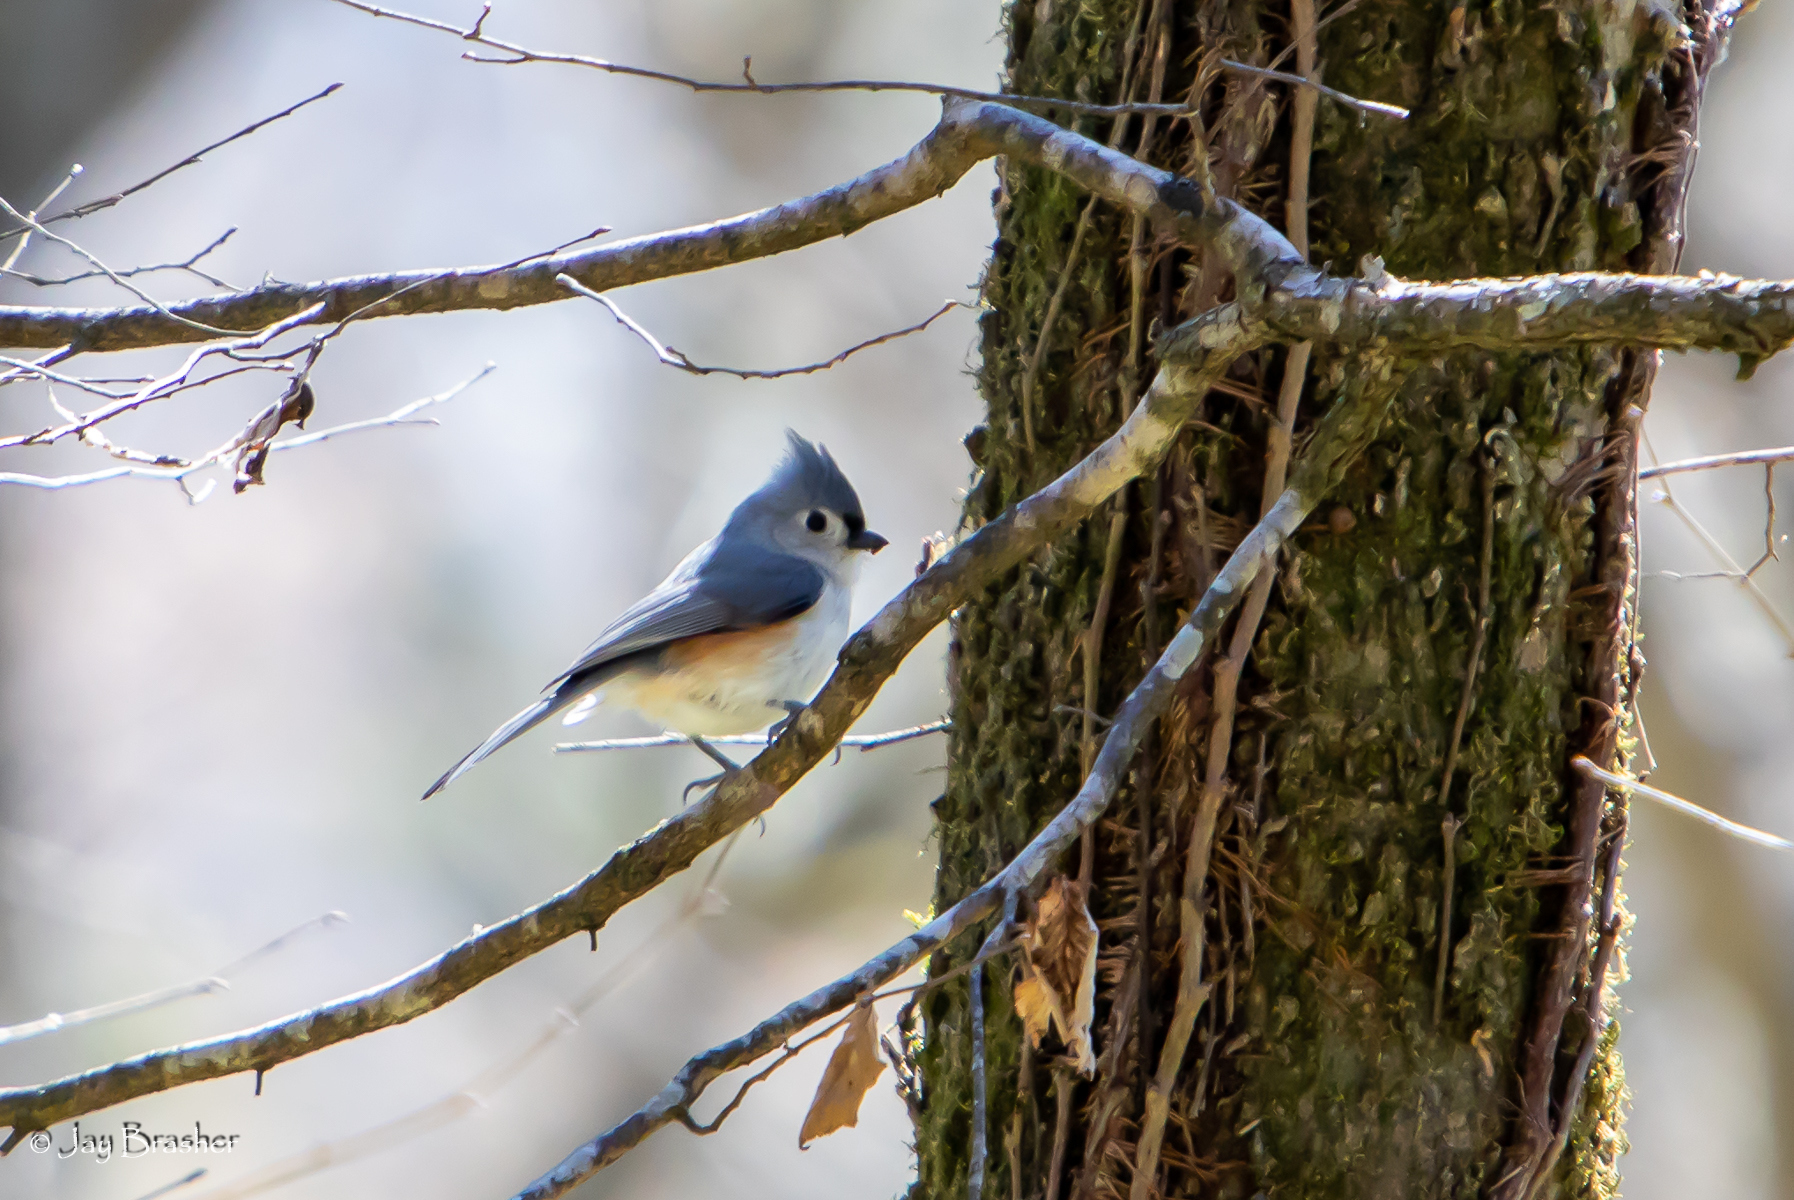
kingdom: Animalia
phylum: Chordata
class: Aves
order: Passeriformes
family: Paridae
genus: Baeolophus
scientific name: Baeolophus bicolor
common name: Tufted titmouse
